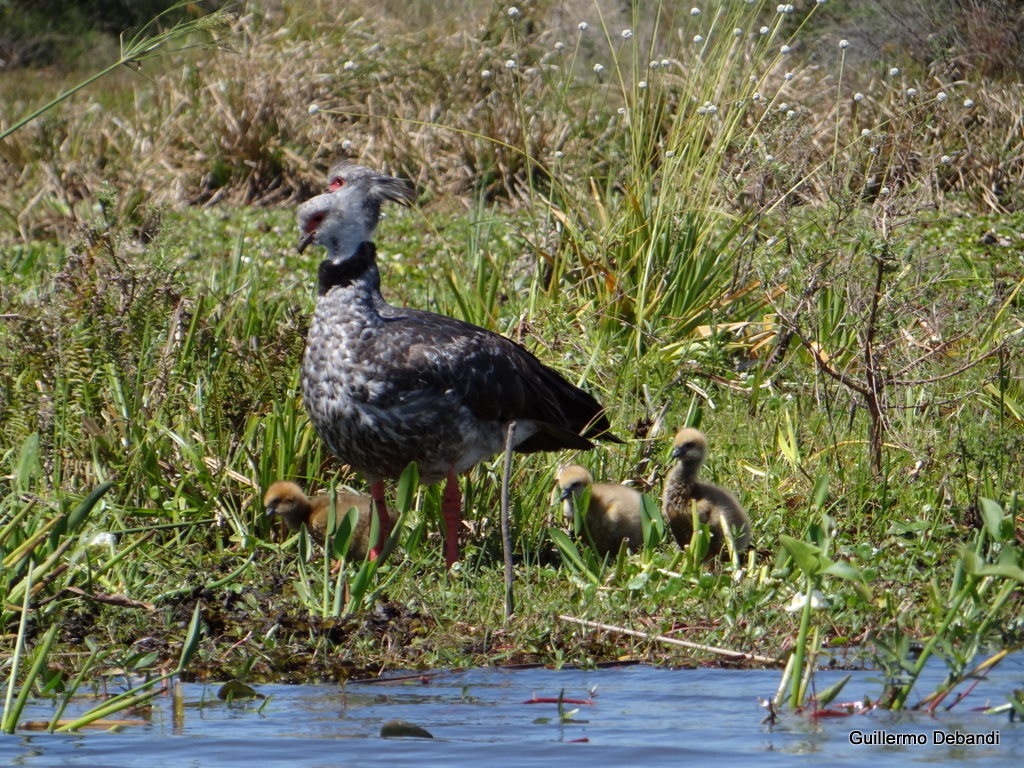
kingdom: Animalia
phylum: Chordata
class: Aves
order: Anseriformes
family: Anhimidae
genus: Chauna
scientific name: Chauna torquata
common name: Southern screamer
